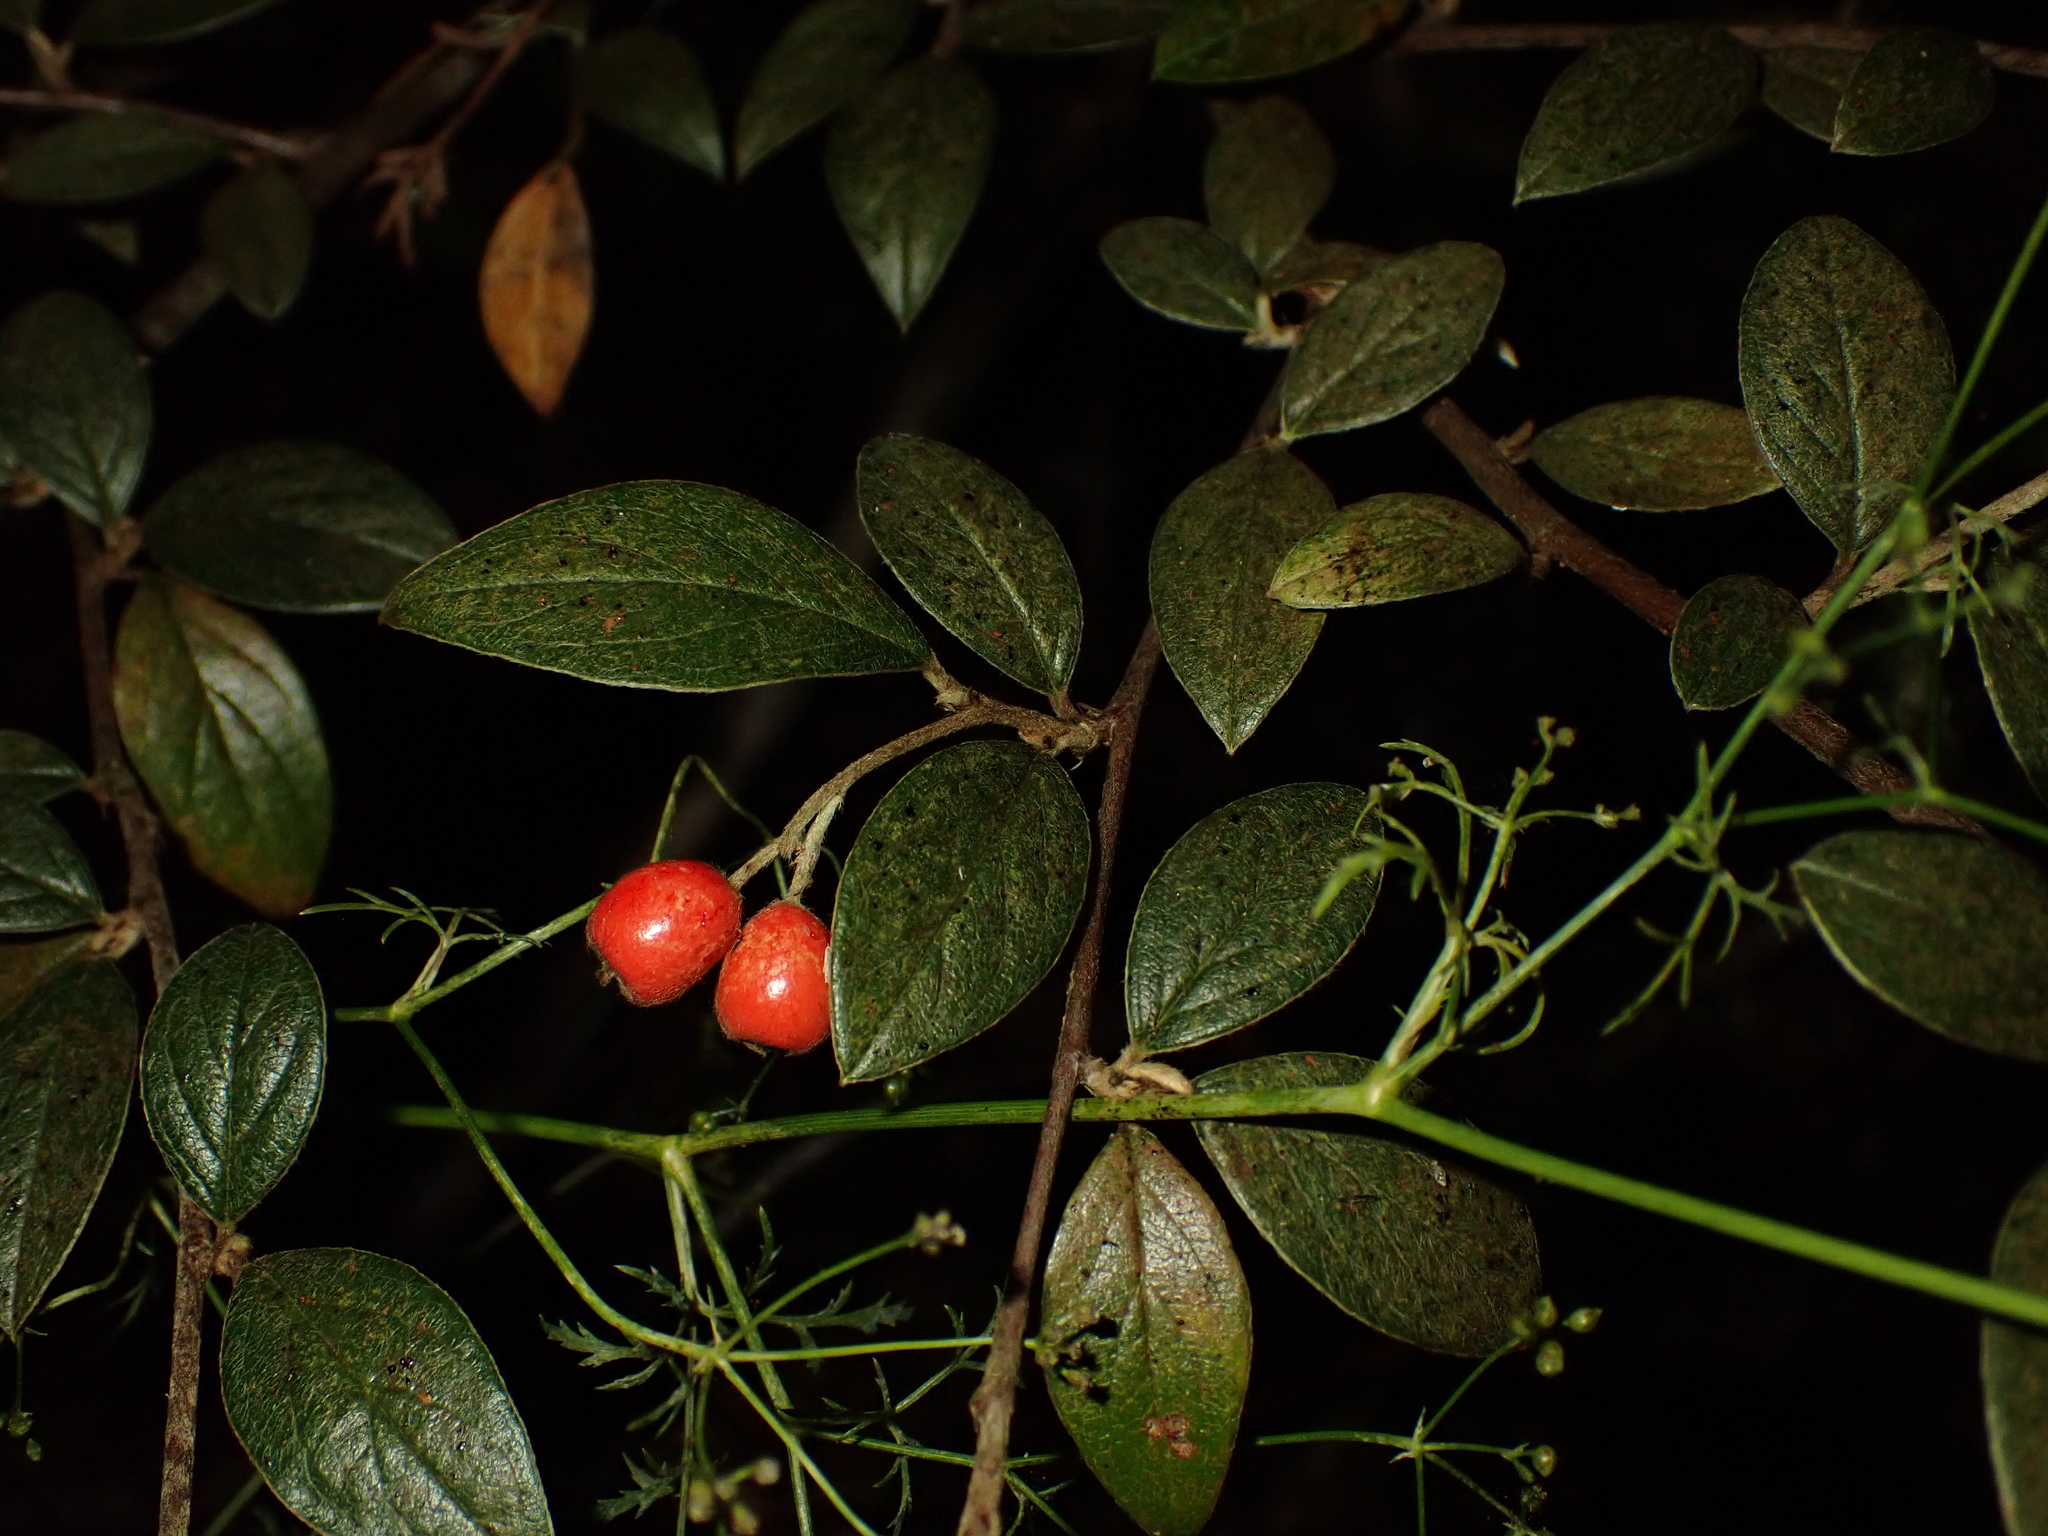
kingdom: Plantae
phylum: Tracheophyta
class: Magnoliopsida
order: Rosales
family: Rosaceae
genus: Cotoneaster
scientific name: Cotoneaster franchetii
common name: Franchet's cotoneaster
